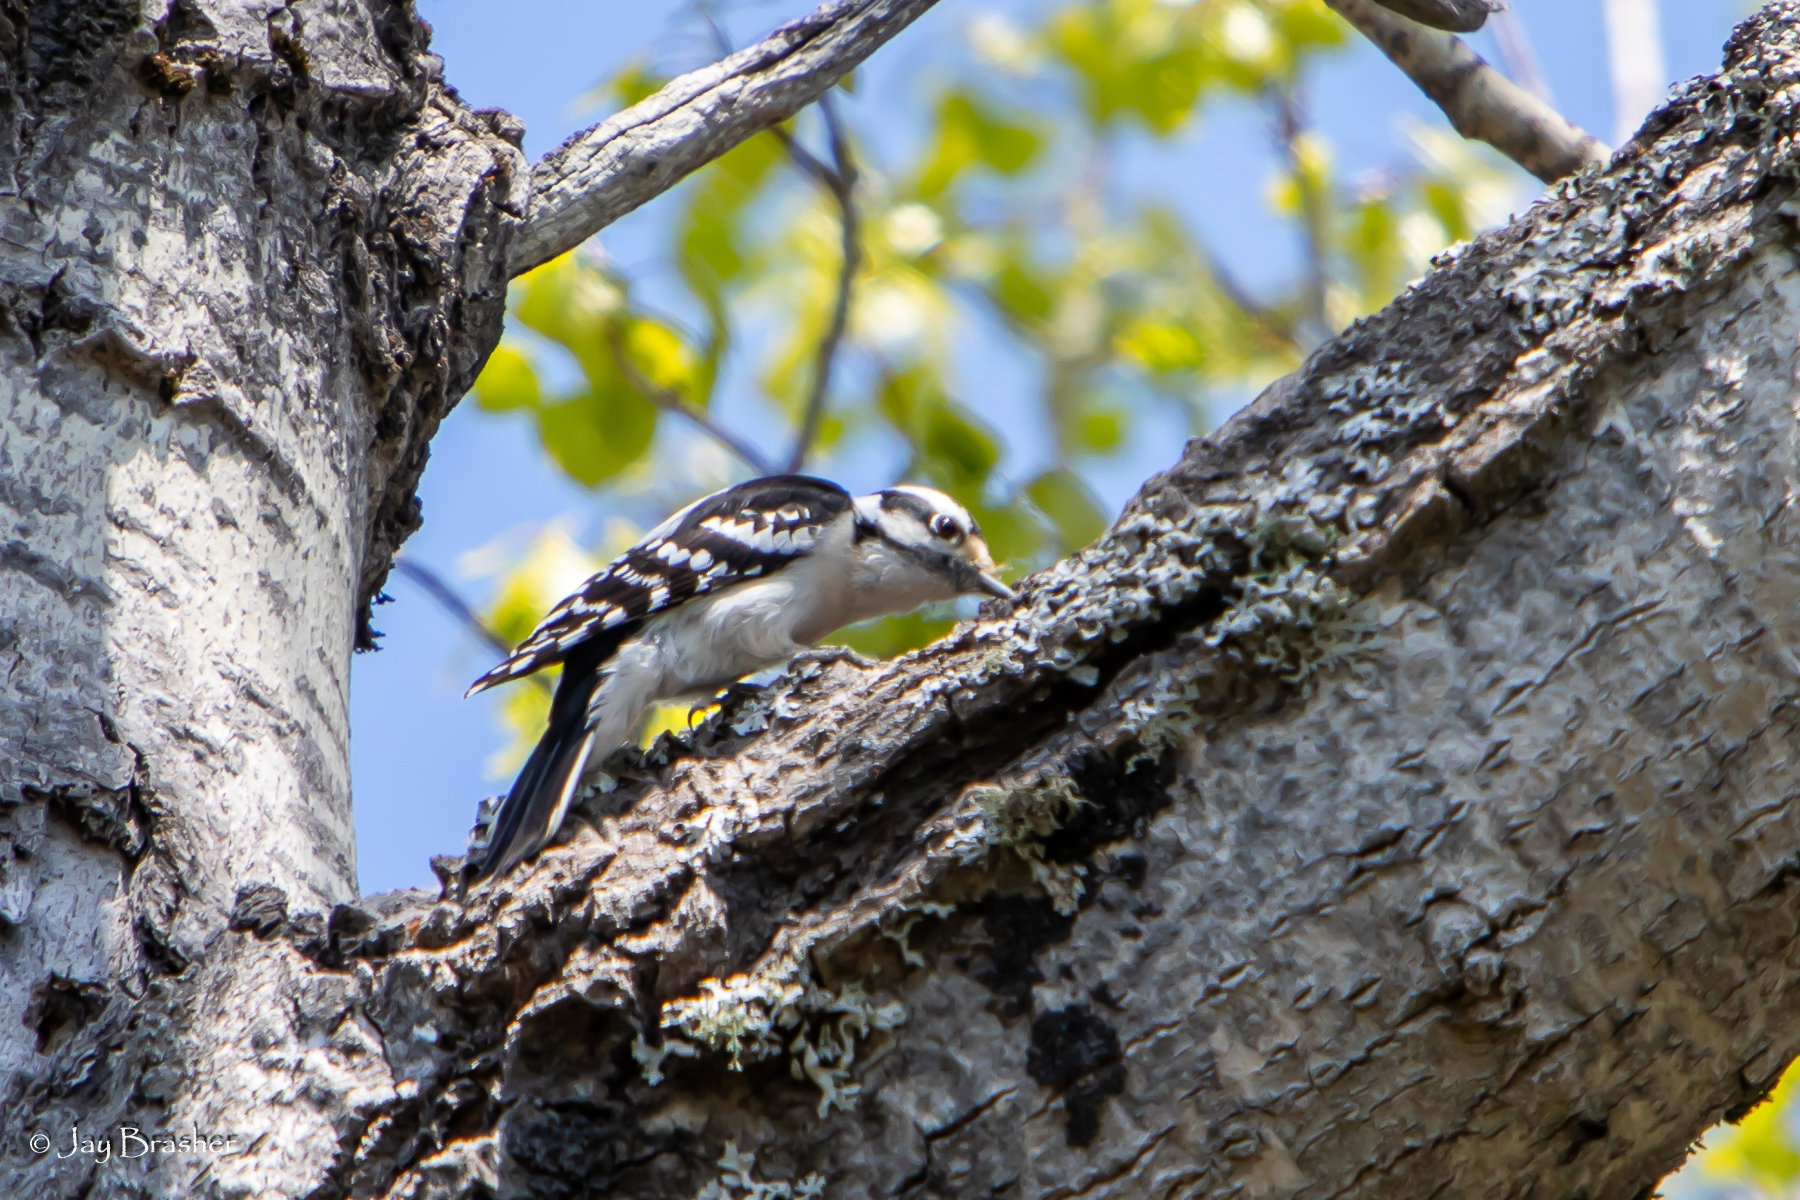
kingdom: Animalia
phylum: Chordata
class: Aves
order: Piciformes
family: Picidae
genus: Dryobates
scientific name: Dryobates pubescens
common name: Downy woodpecker
